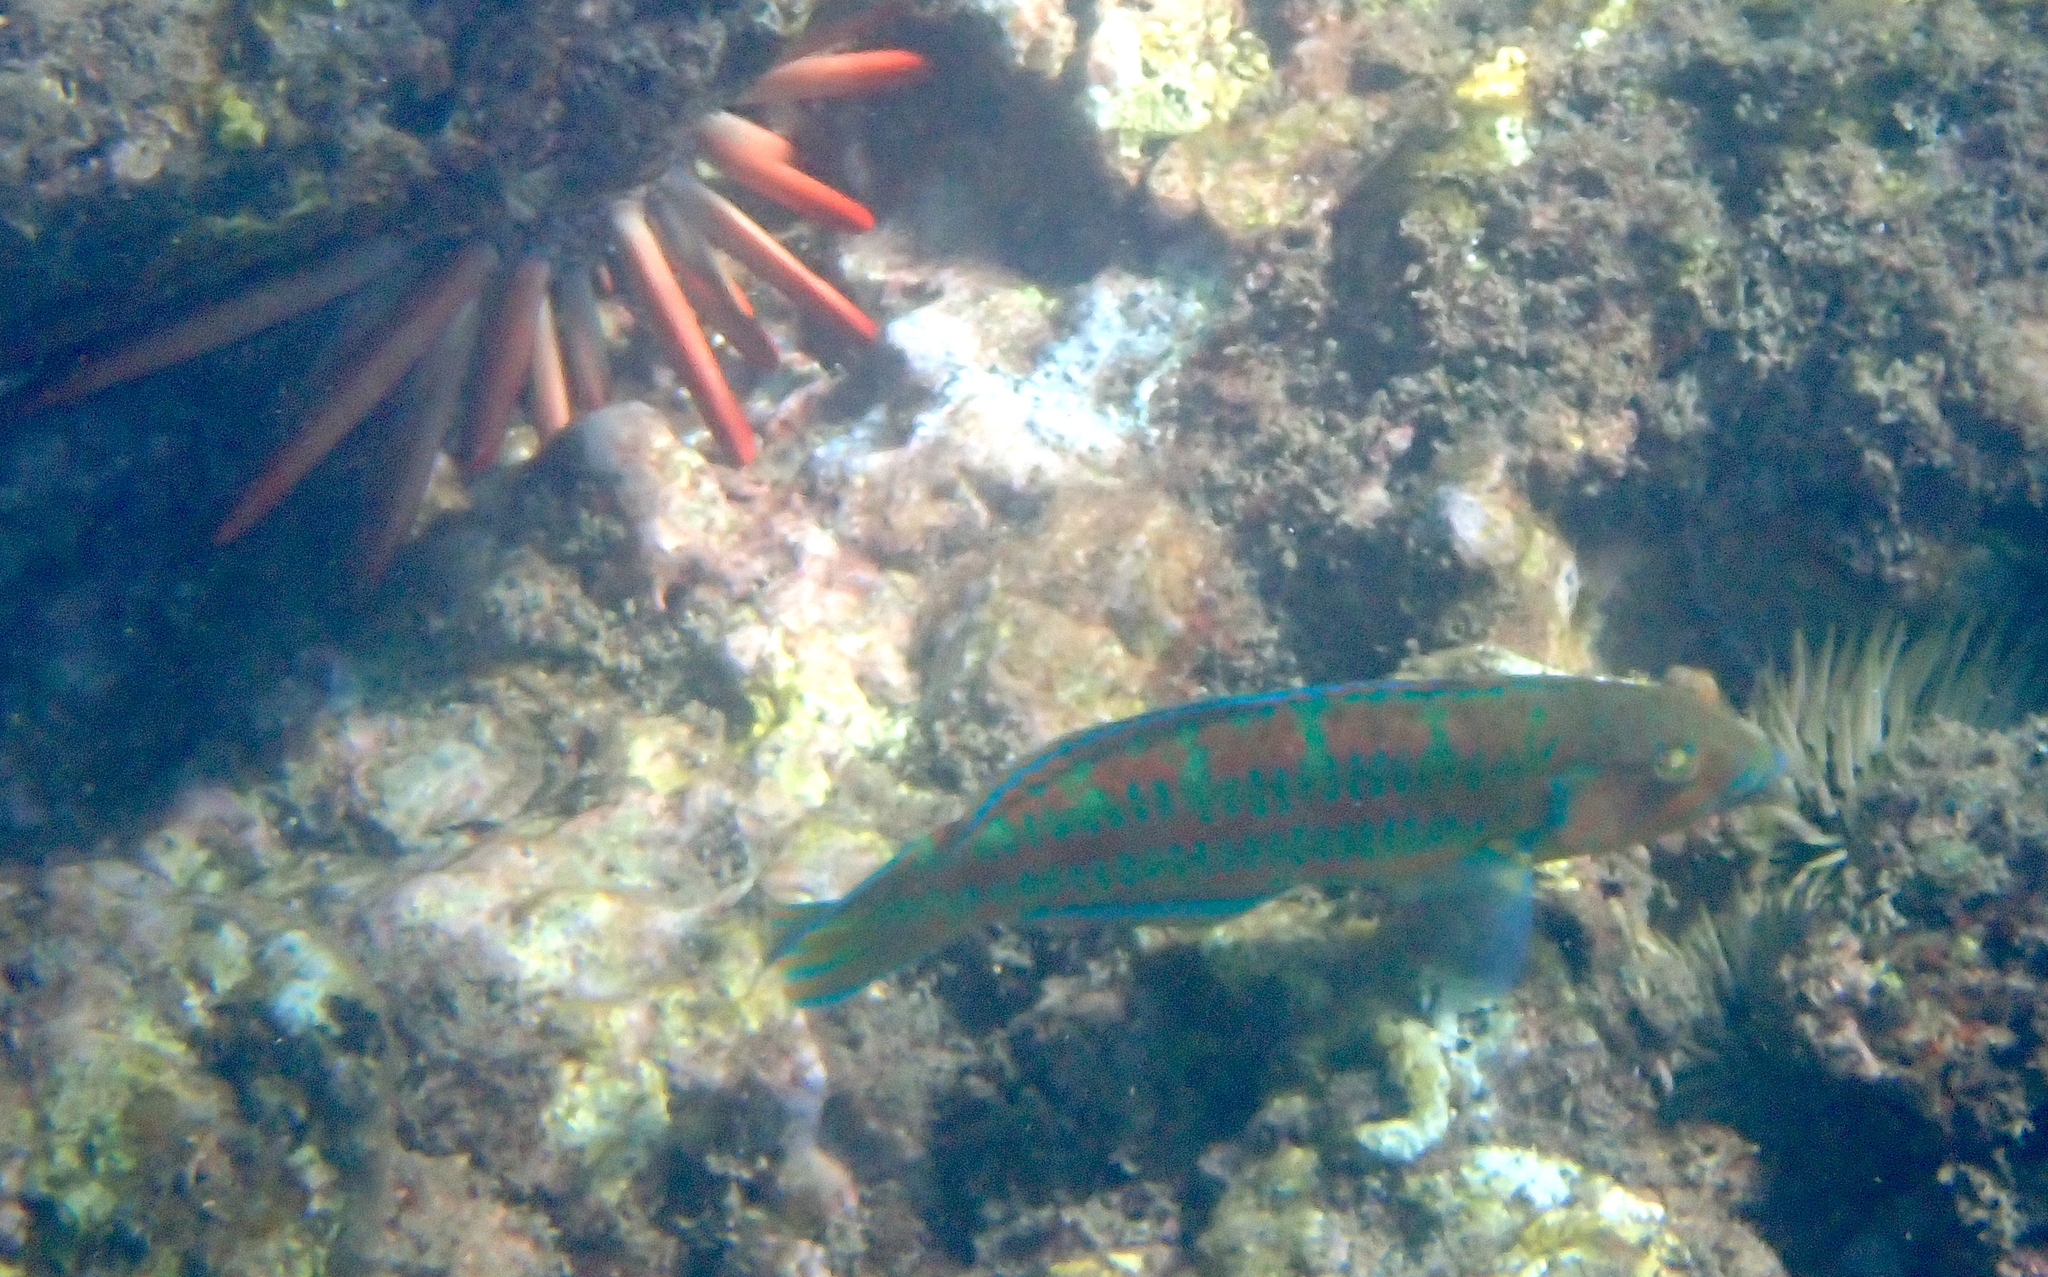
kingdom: Animalia
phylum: Chordata
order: Perciformes
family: Labridae
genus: Thalassoma
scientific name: Thalassoma trilobatum
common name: Christmas wrasse
